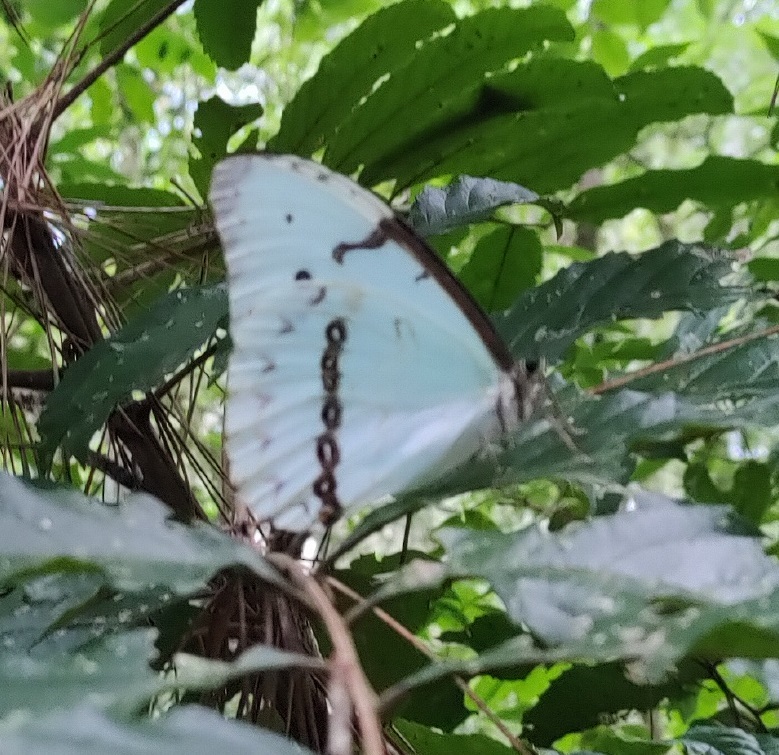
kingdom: Animalia
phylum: Arthropoda
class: Insecta
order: Lepidoptera
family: Nymphalidae
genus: Morpho
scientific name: Morpho epistrophus
